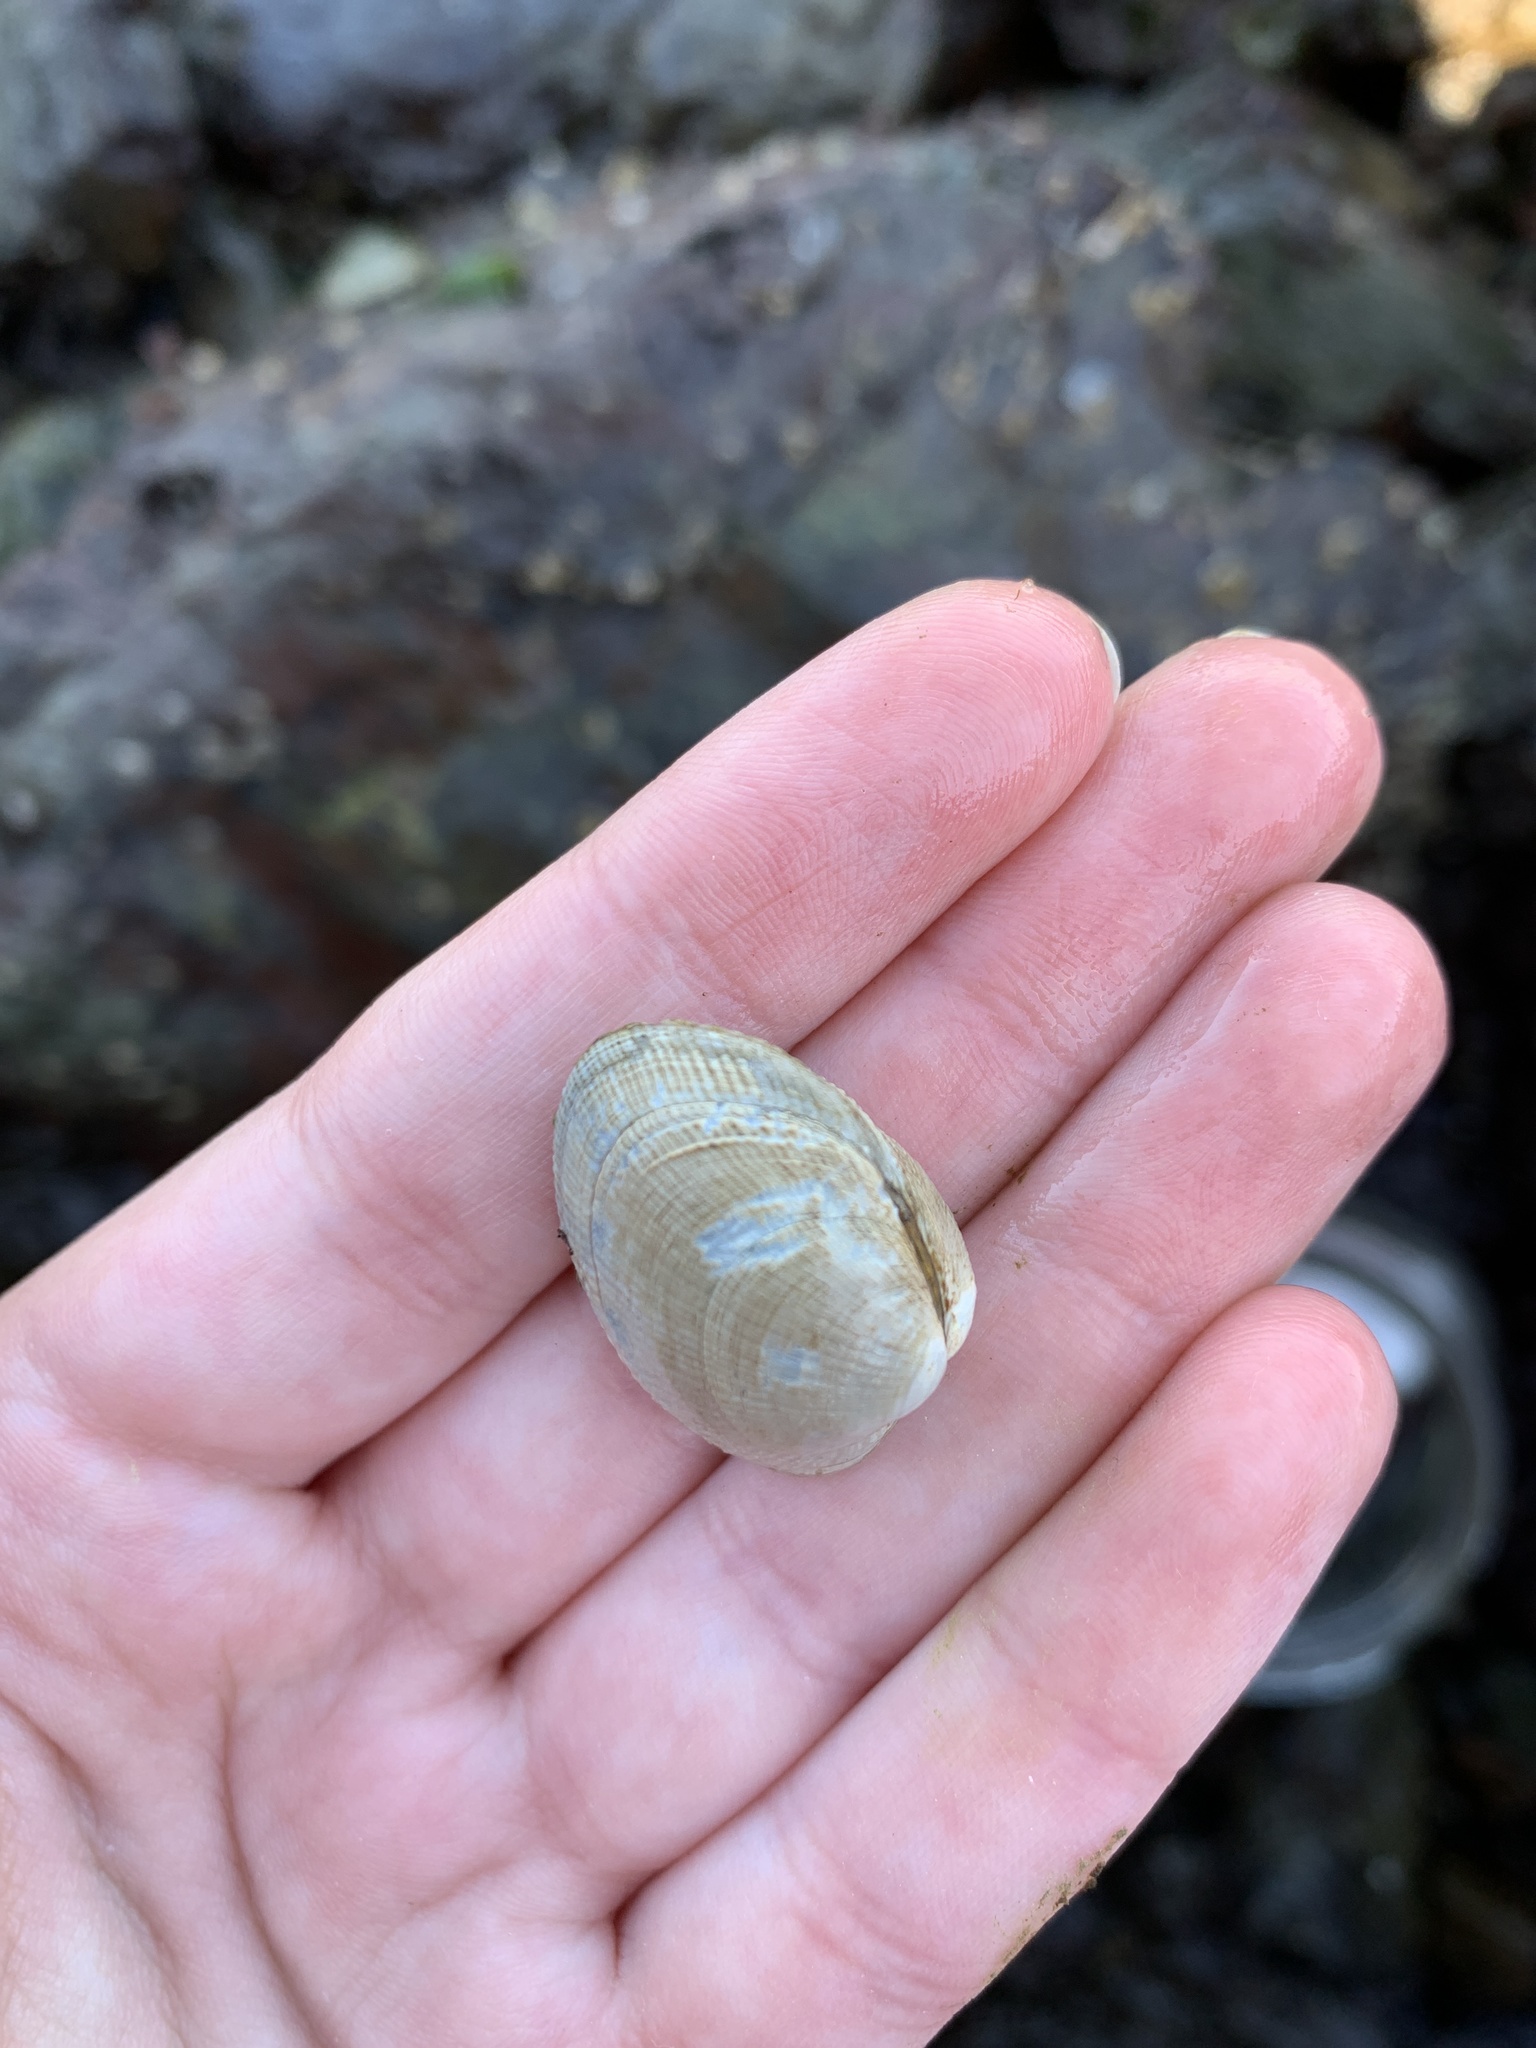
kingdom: Animalia
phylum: Mollusca
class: Bivalvia
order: Venerida
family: Veneridae
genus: Leukoma
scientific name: Leukoma staminea
